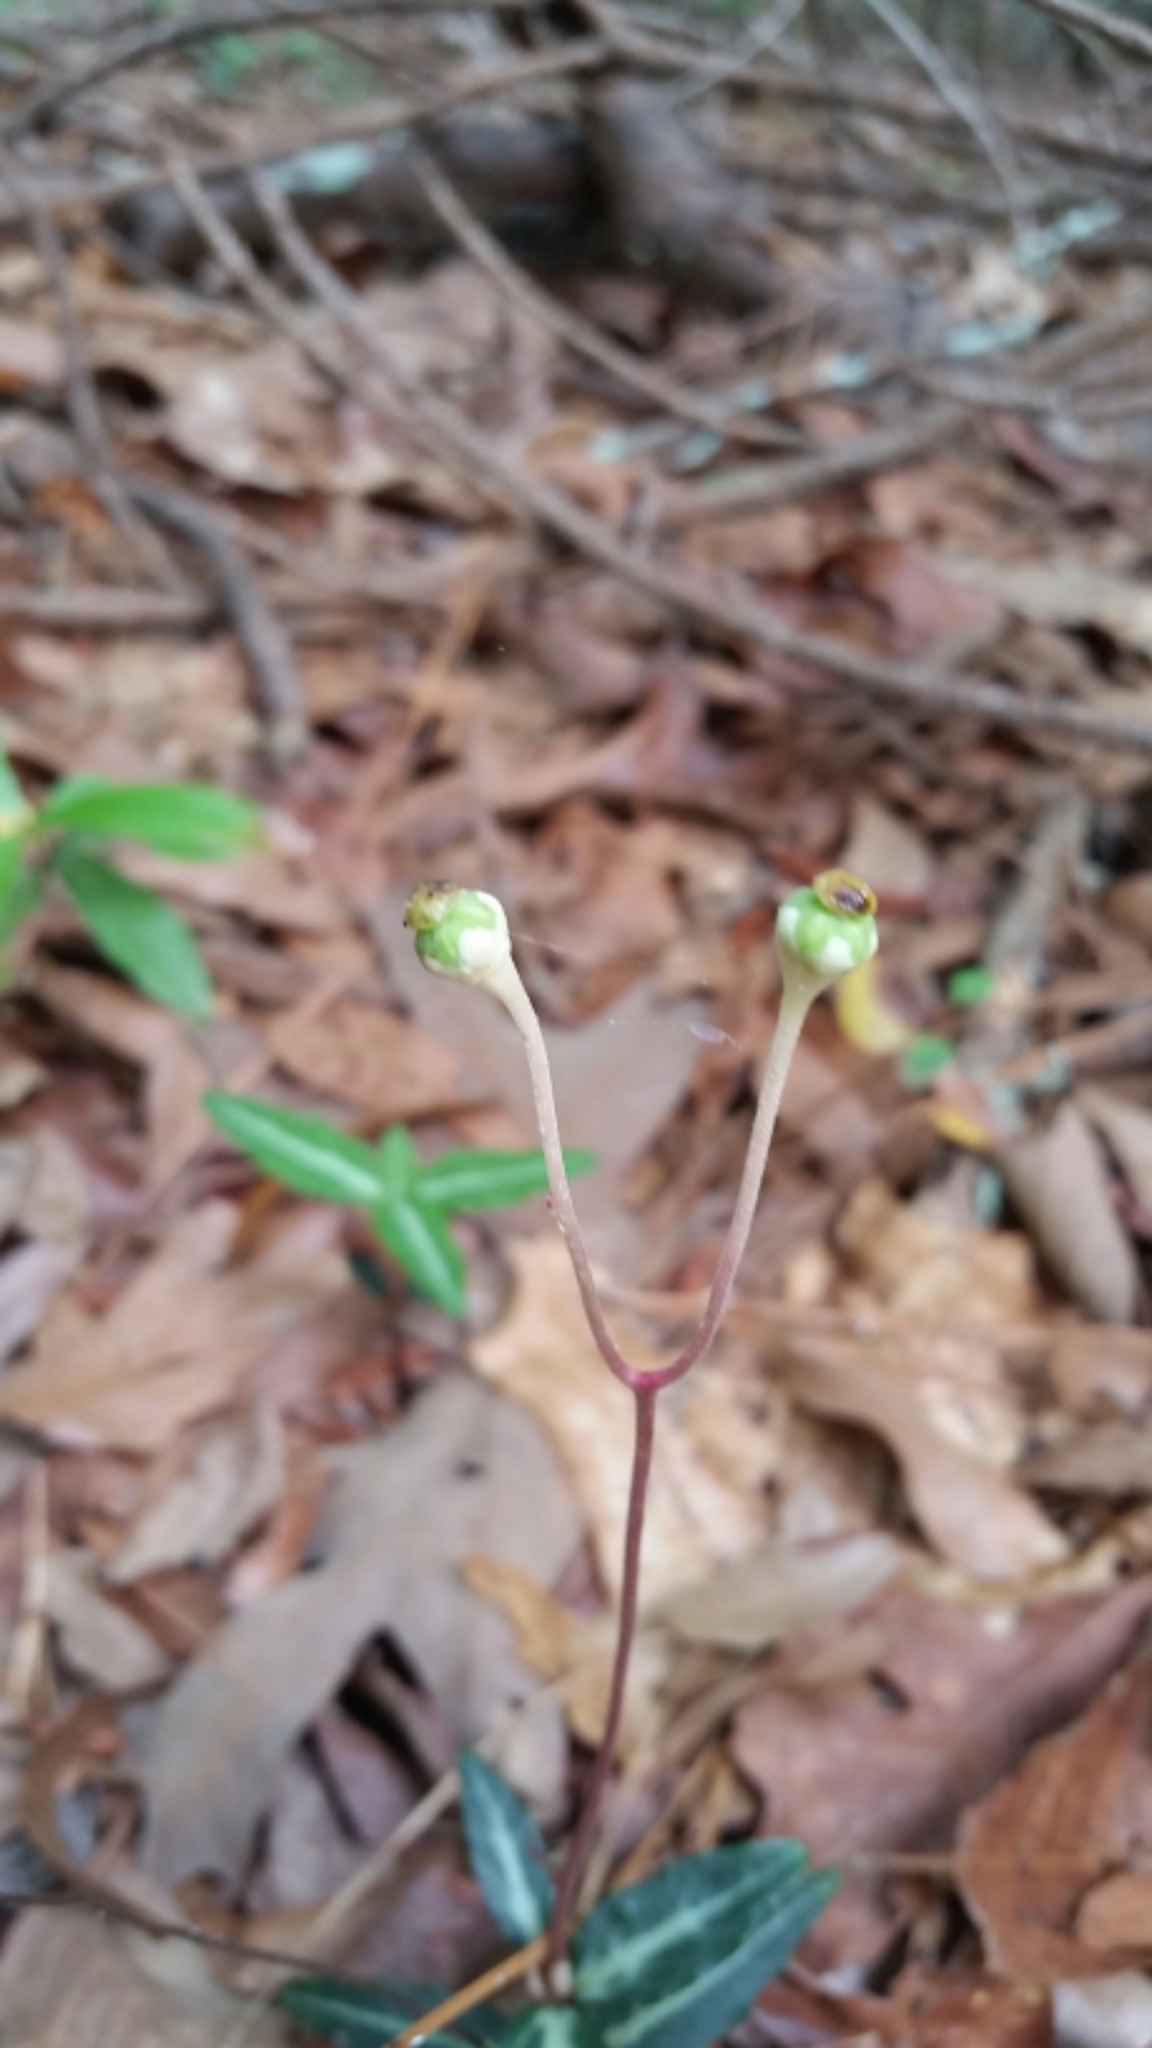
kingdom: Plantae
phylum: Tracheophyta
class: Magnoliopsida
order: Ericales
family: Ericaceae
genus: Chimaphila
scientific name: Chimaphila maculata
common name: Spotted pipsissewa
